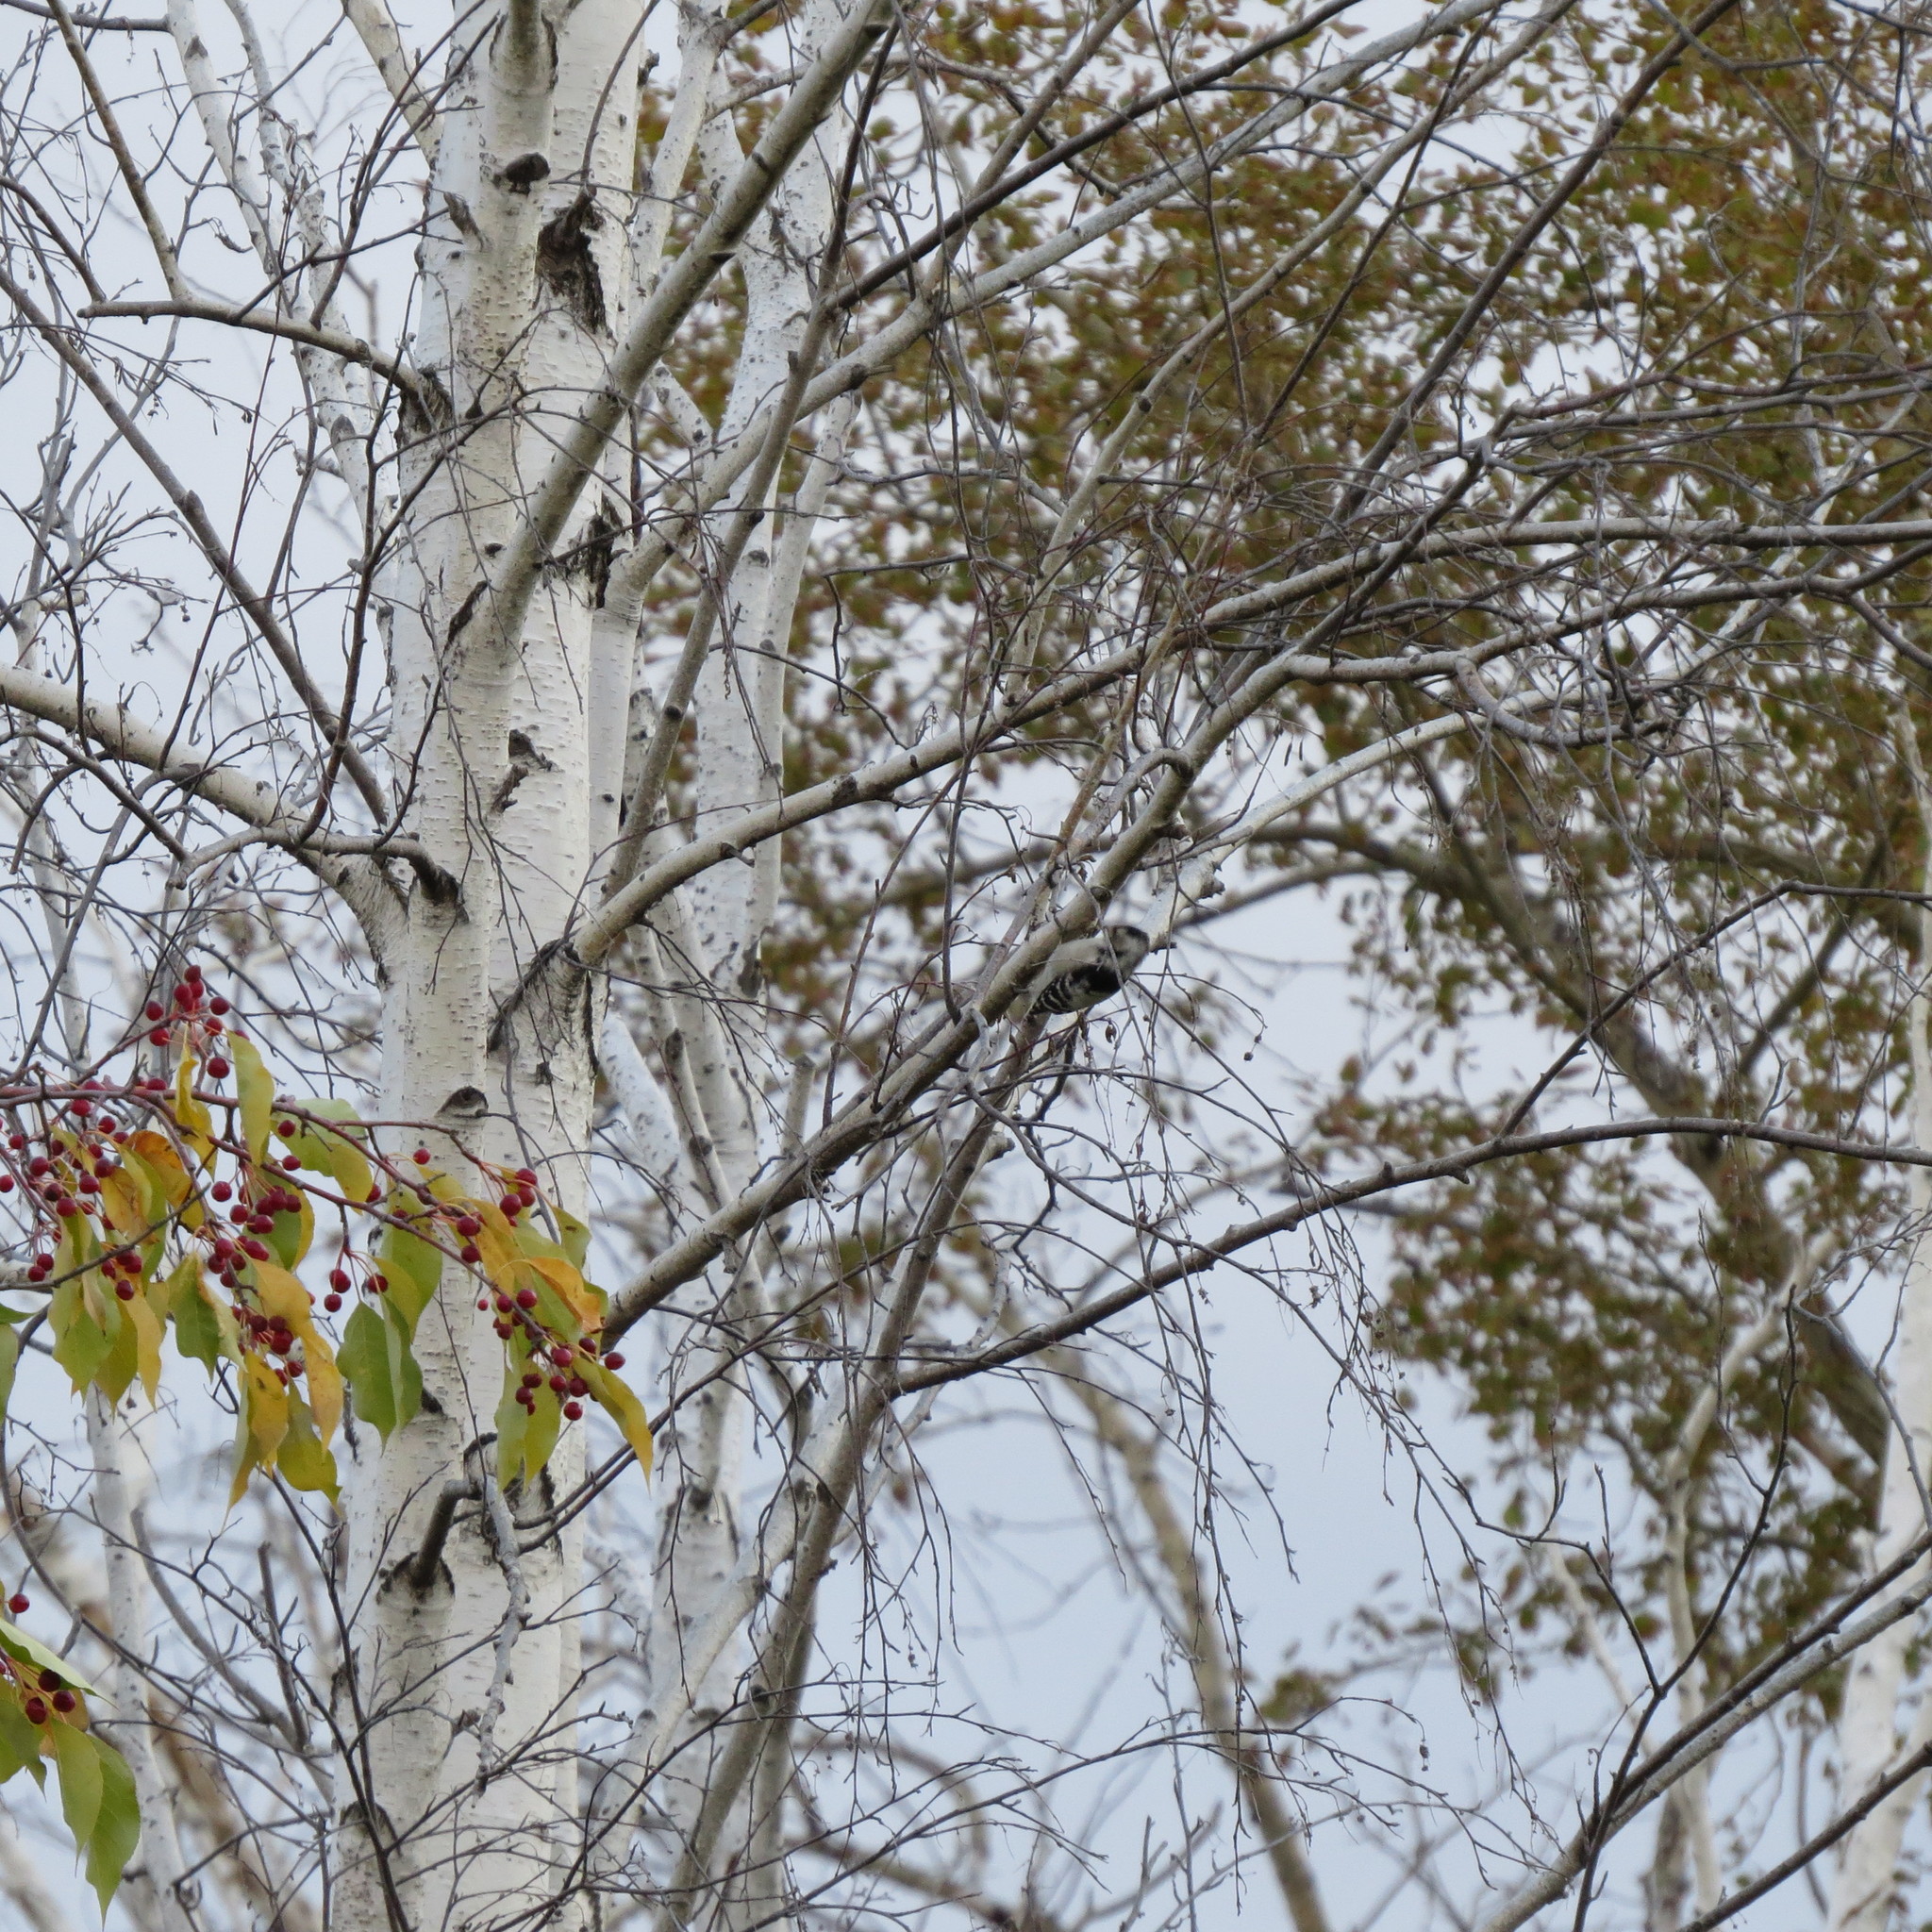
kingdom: Animalia
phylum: Chordata
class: Aves
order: Piciformes
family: Picidae
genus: Dryobates
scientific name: Dryobates minor
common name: Lesser spotted woodpecker
